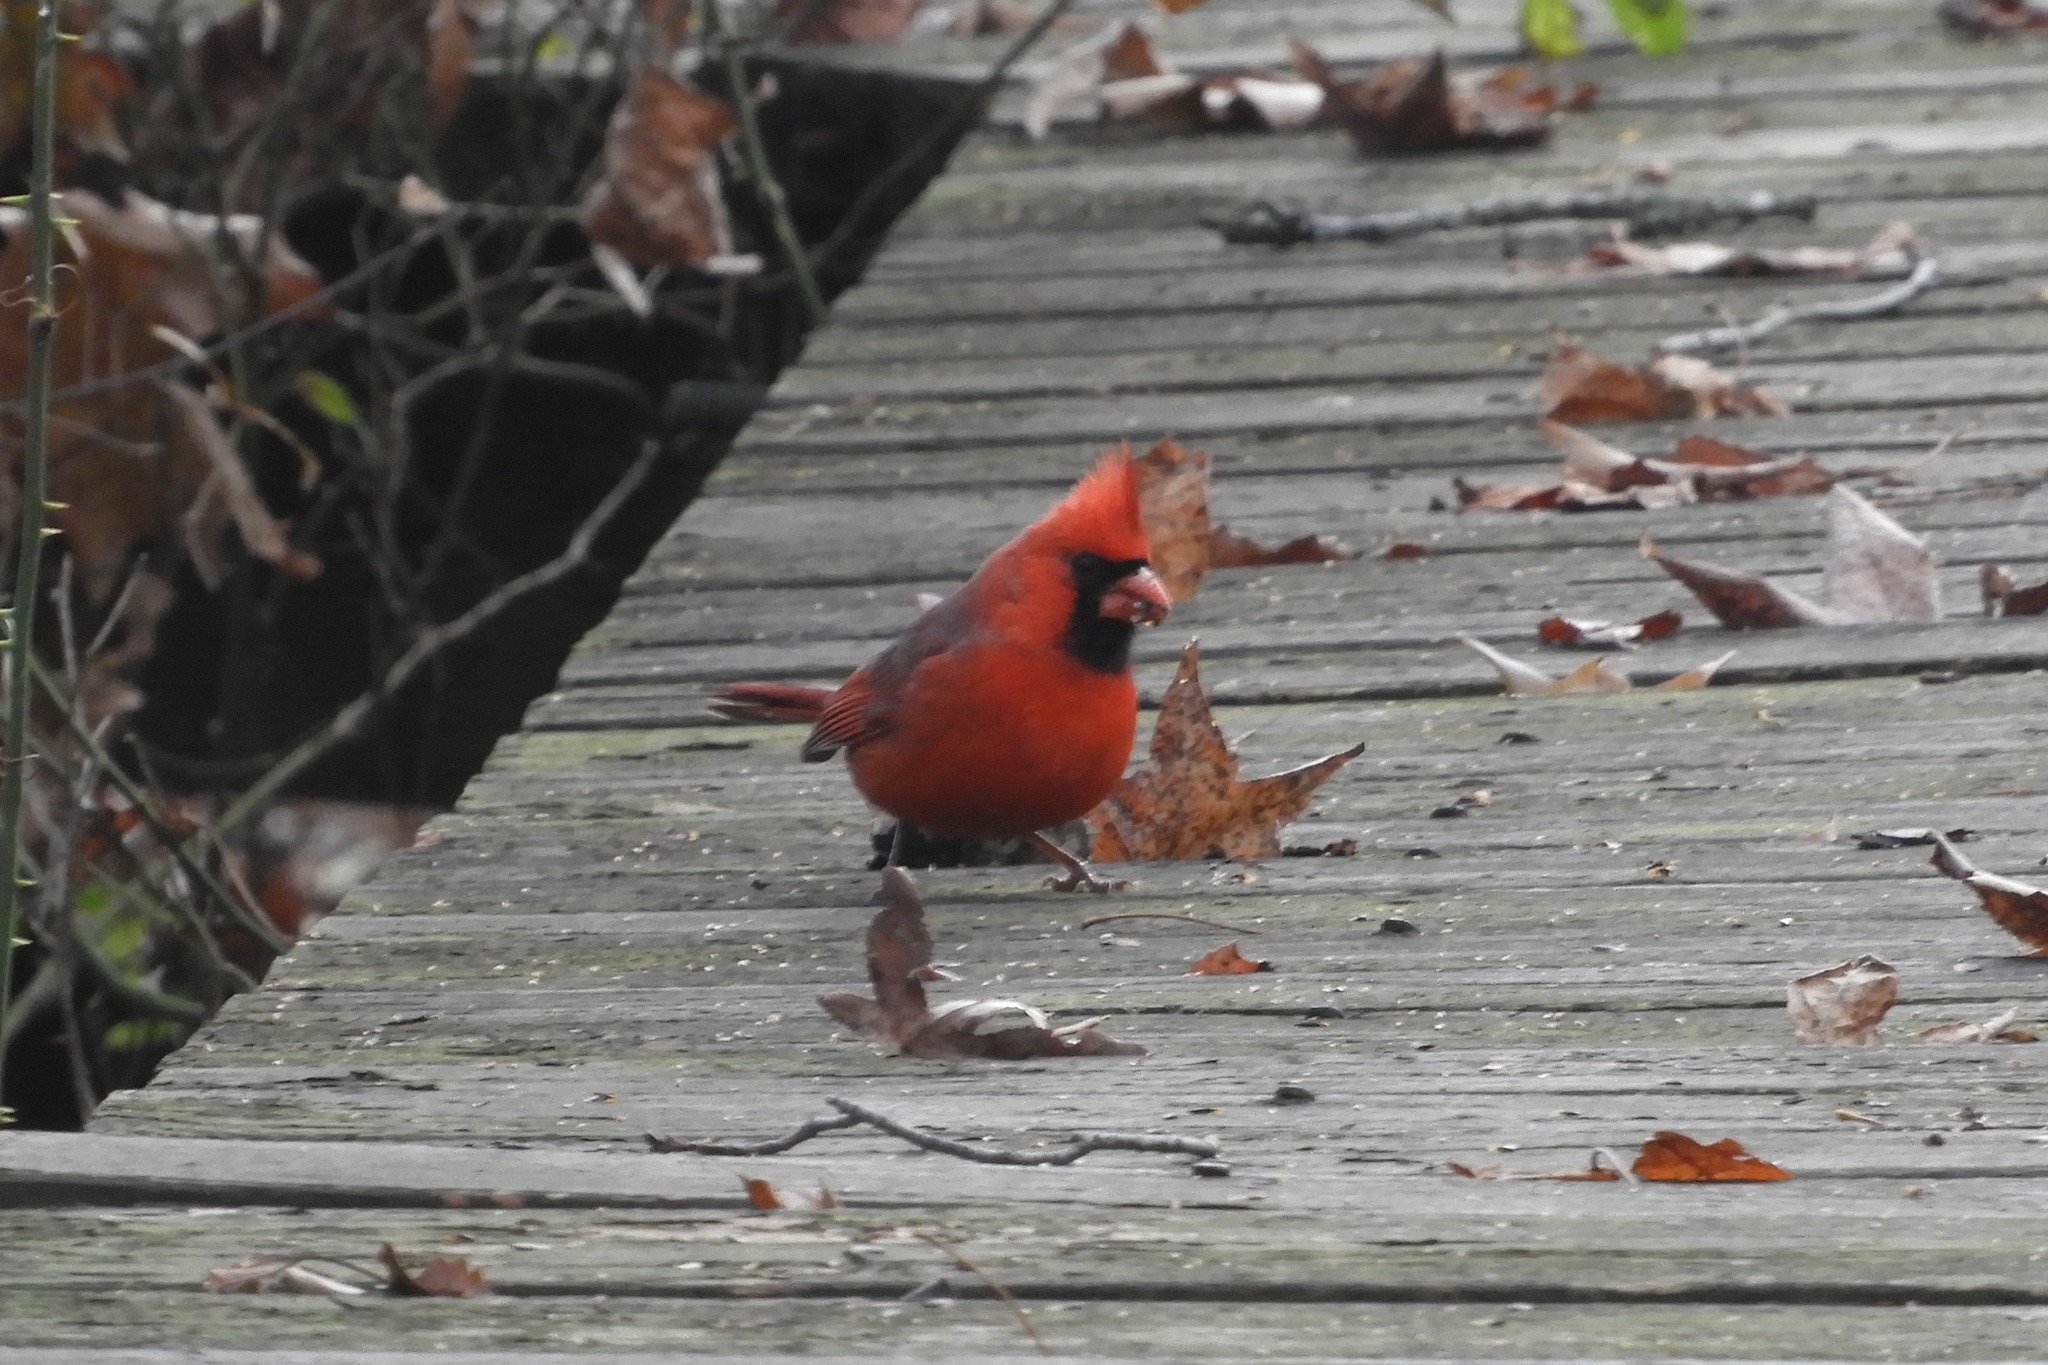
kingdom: Animalia
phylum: Chordata
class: Aves
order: Passeriformes
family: Cardinalidae
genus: Cardinalis
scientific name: Cardinalis cardinalis
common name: Northern cardinal
